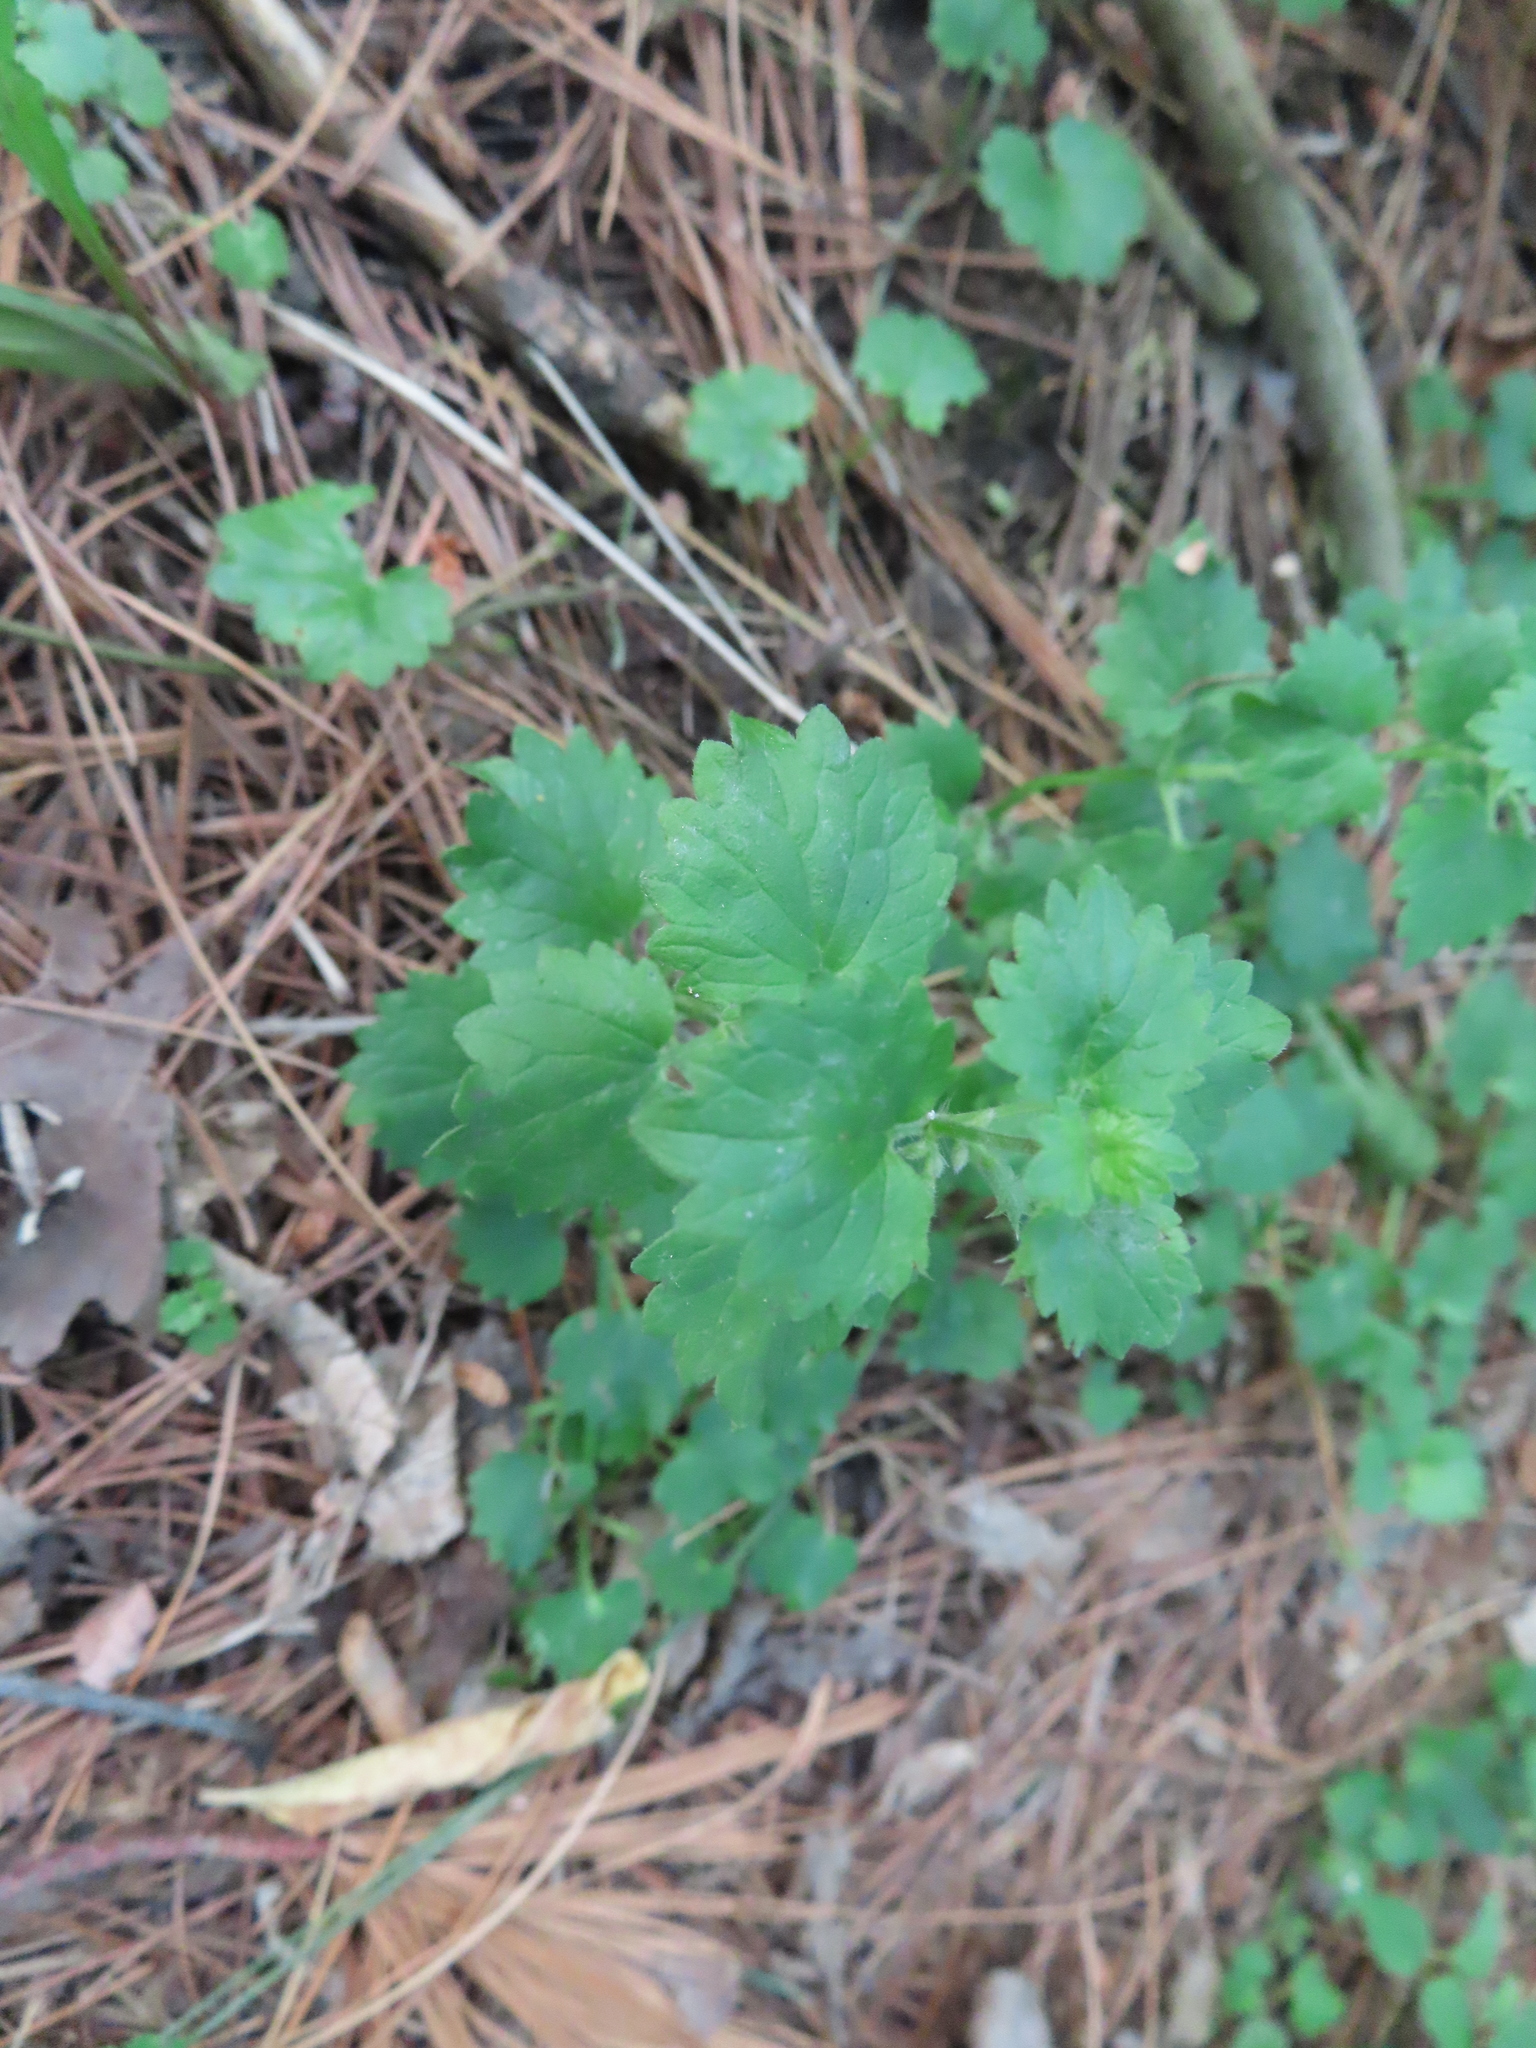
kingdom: Plantae
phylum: Tracheophyta
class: Magnoliopsida
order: Lamiales
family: Lamiaceae
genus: Glechoma
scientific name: Glechoma hederacea
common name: Ground ivy
